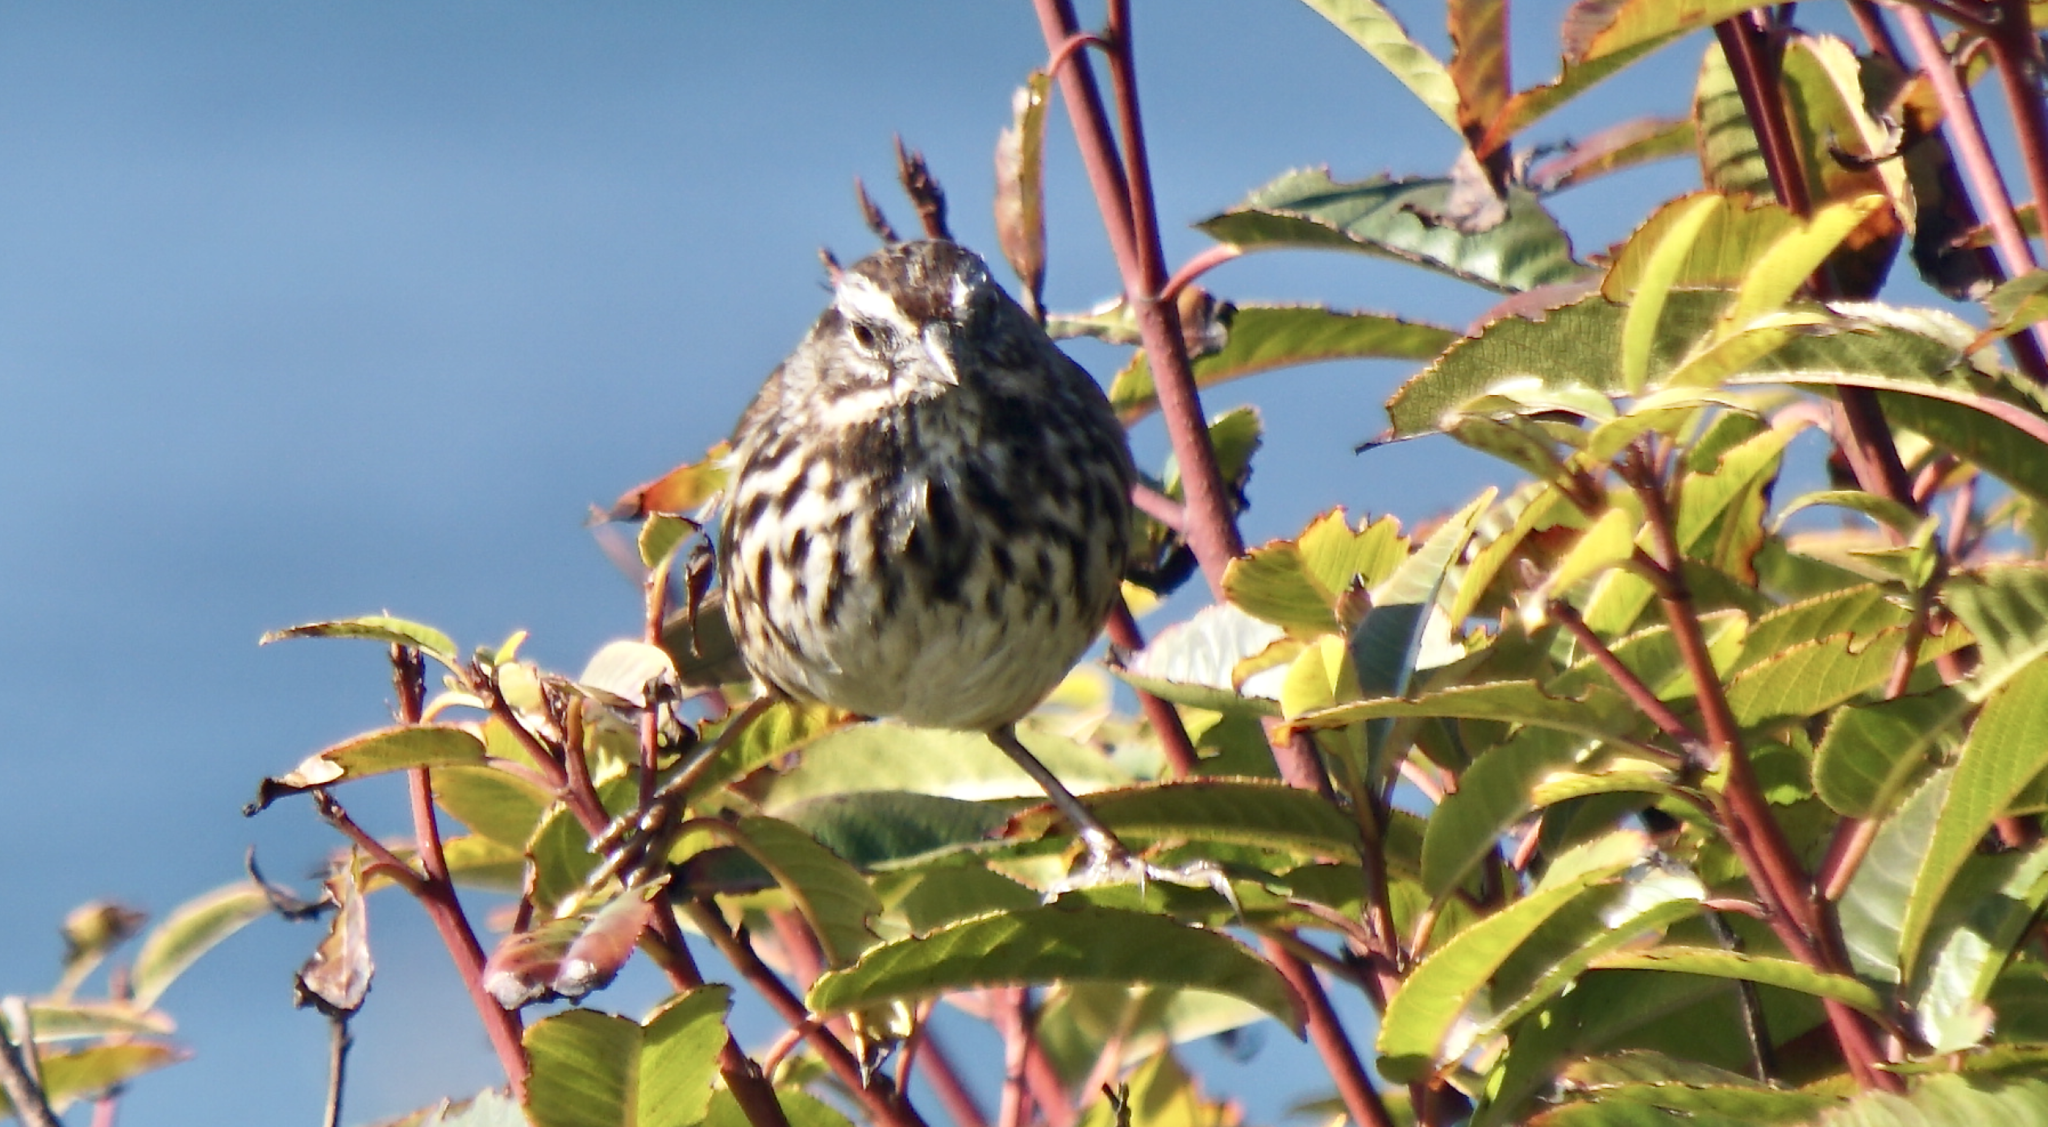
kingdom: Animalia
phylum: Chordata
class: Aves
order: Passeriformes
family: Passerellidae
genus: Melospiza
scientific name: Melospiza melodia
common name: Song sparrow
